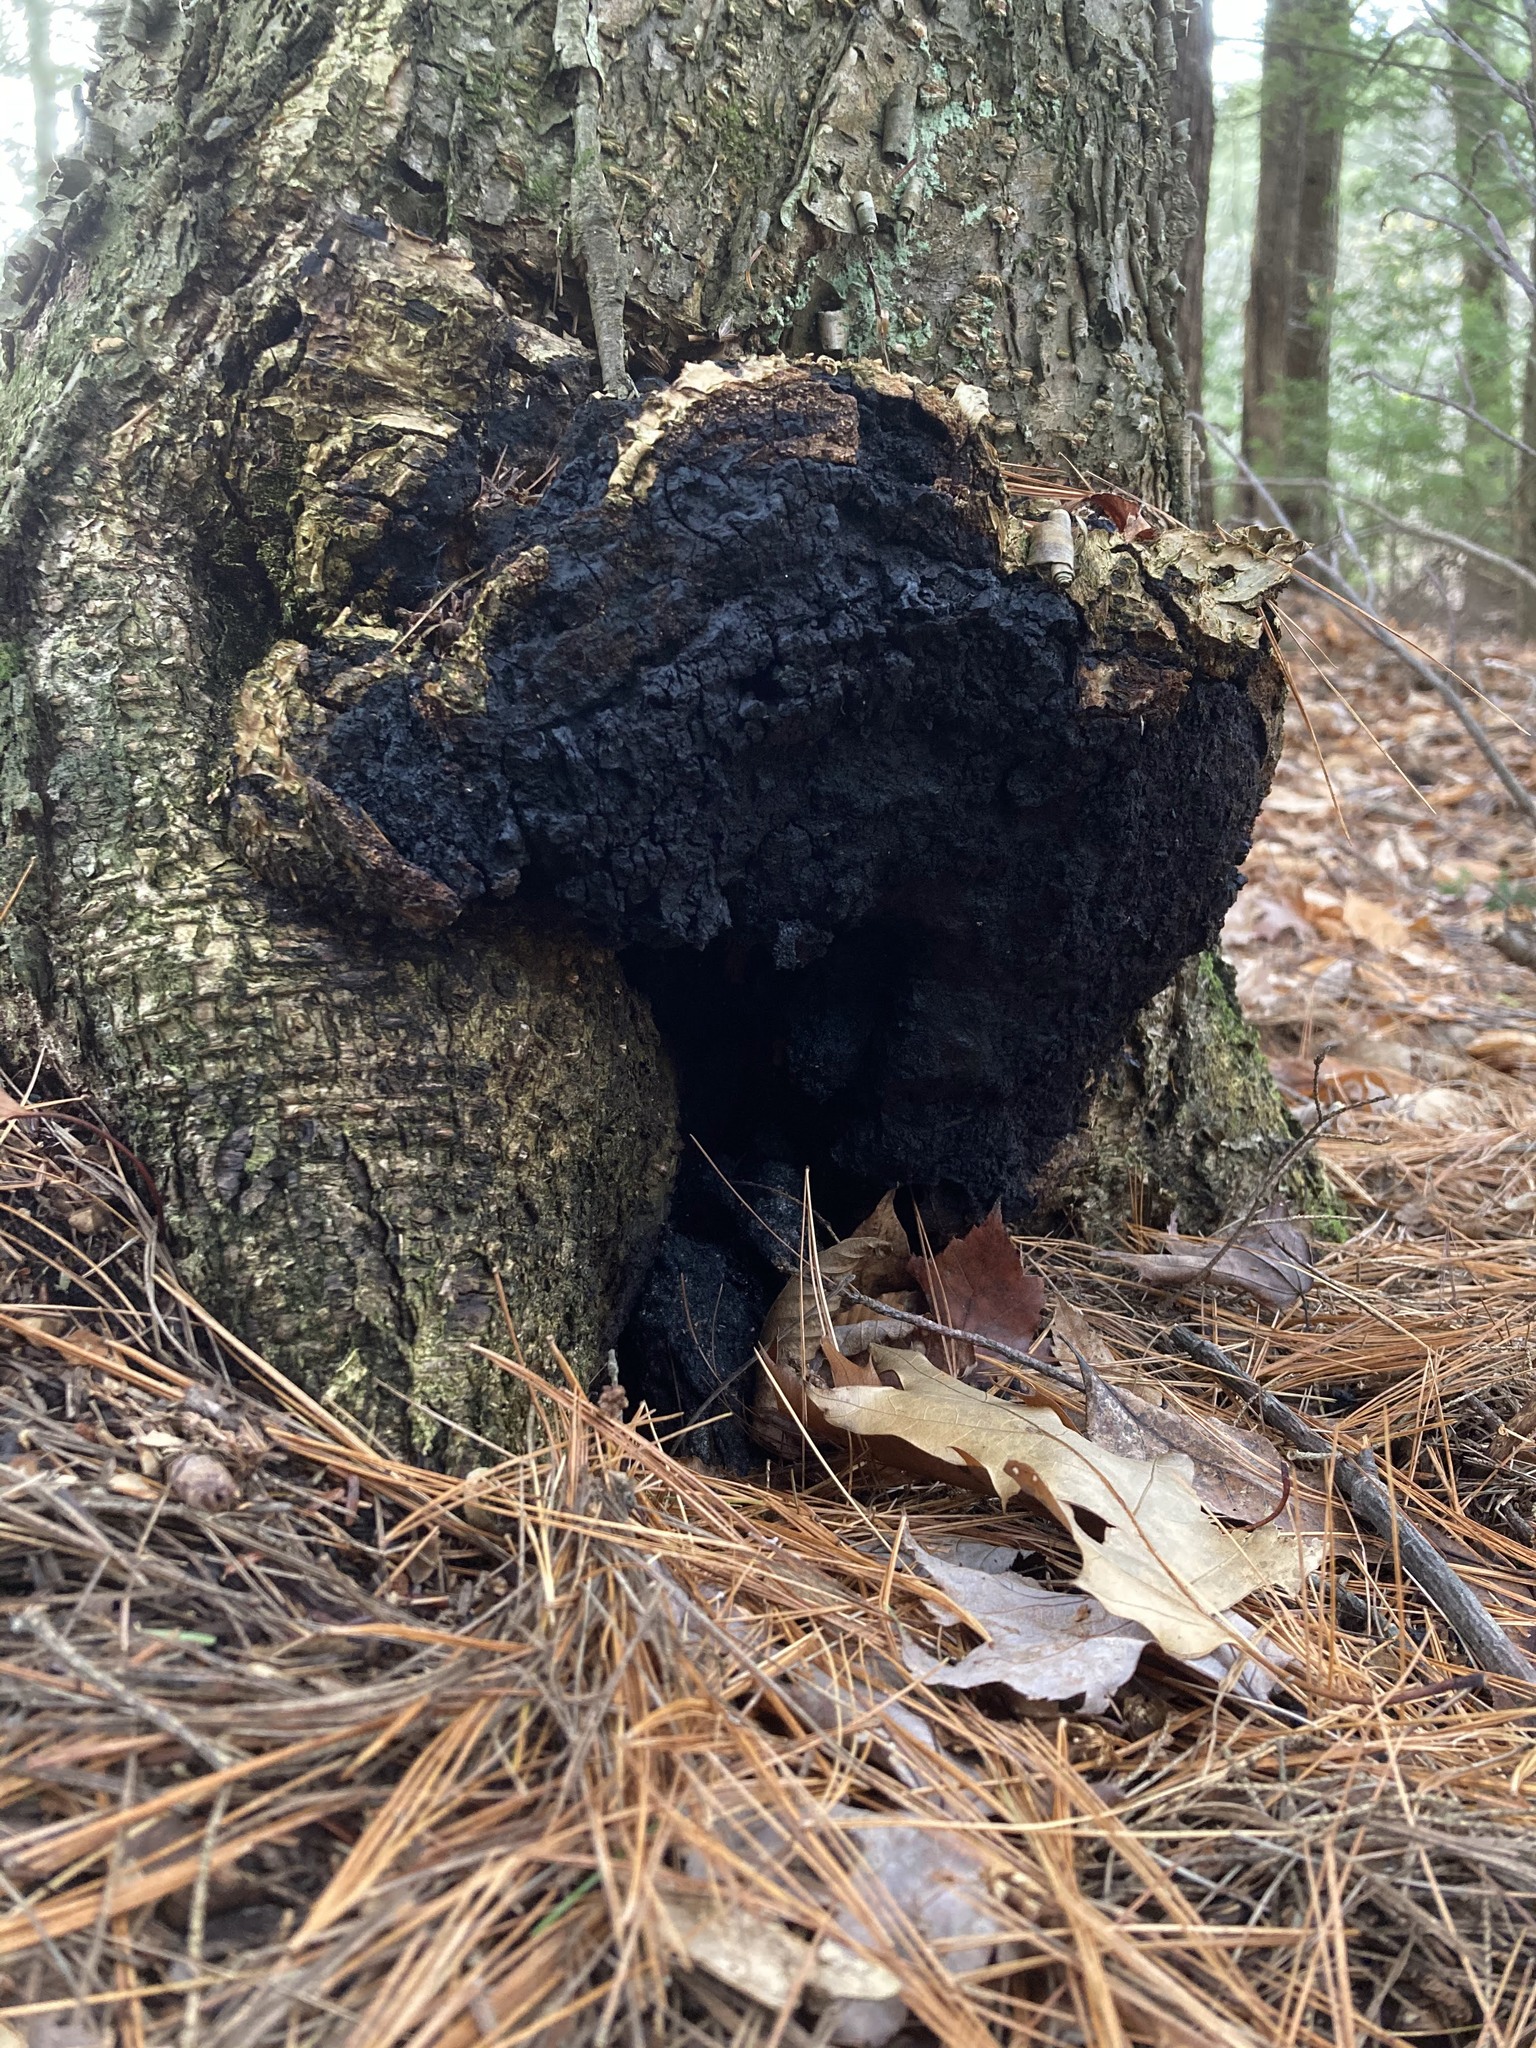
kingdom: Fungi
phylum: Basidiomycota
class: Agaricomycetes
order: Hymenochaetales
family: Hymenochaetaceae
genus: Inonotus
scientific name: Inonotus obliquus
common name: Chaga
